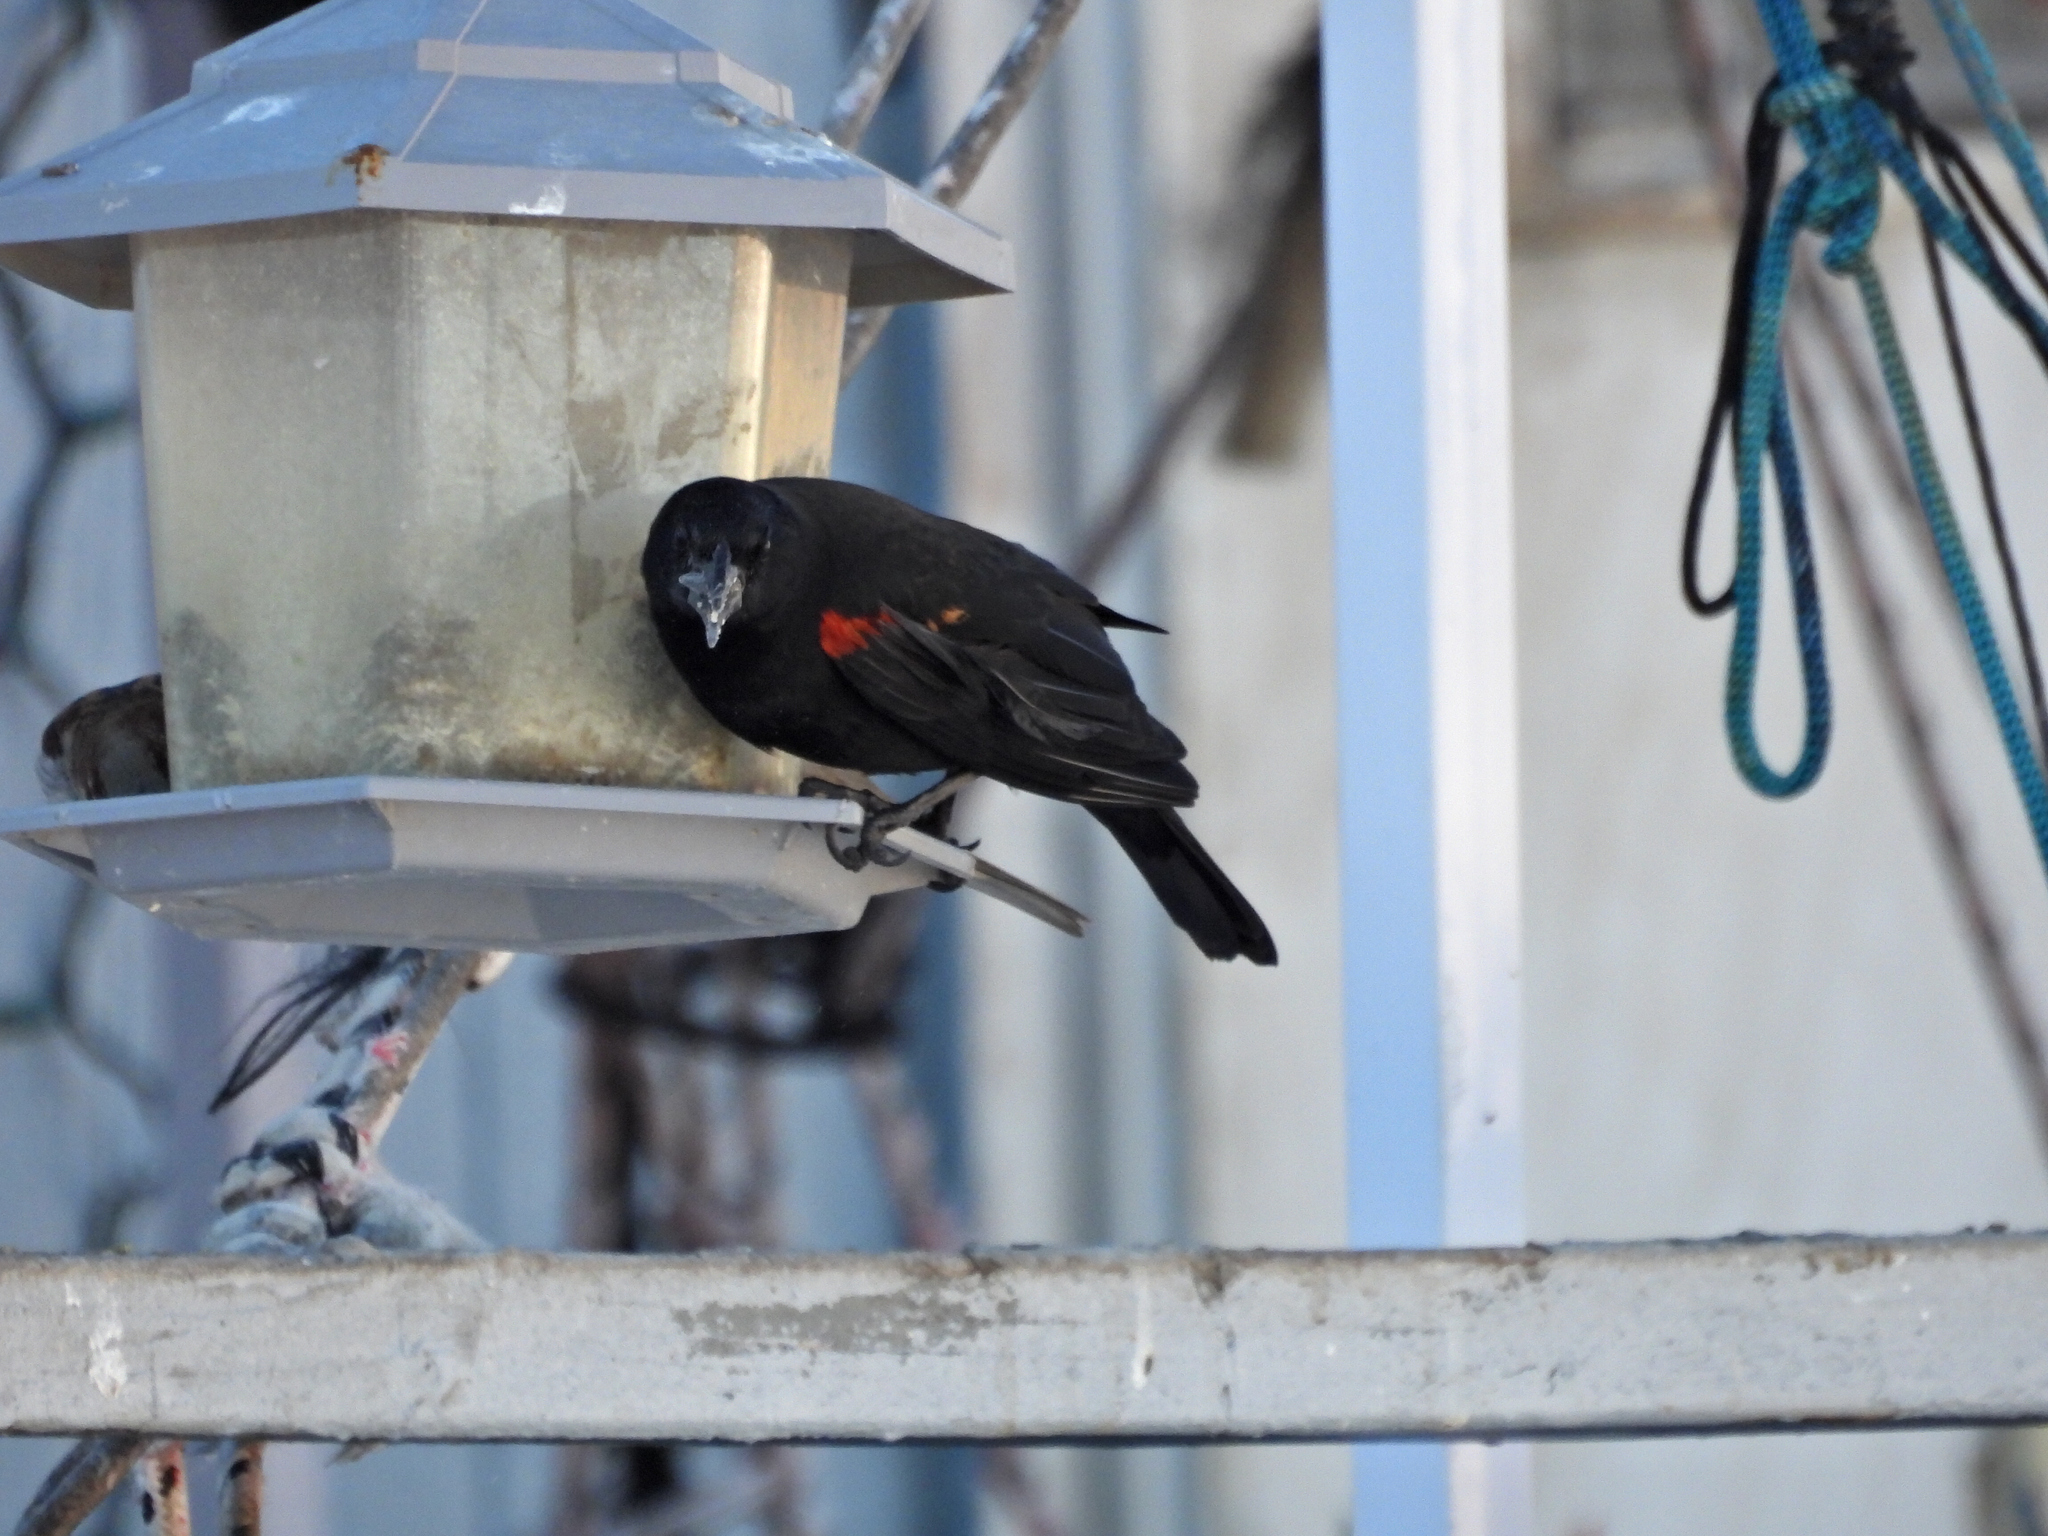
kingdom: Animalia
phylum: Chordata
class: Aves
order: Passeriformes
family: Icteridae
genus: Agelaius
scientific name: Agelaius phoeniceus
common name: Red-winged blackbird
